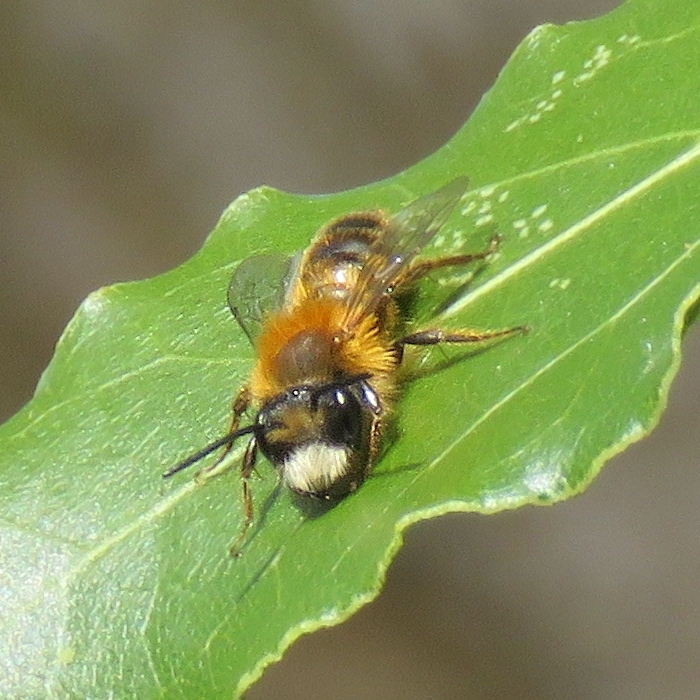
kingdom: Animalia
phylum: Arthropoda
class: Insecta
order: Hymenoptera
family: Andrenidae
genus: Andrena
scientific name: Andrena fulva
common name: Tawny mining bee
